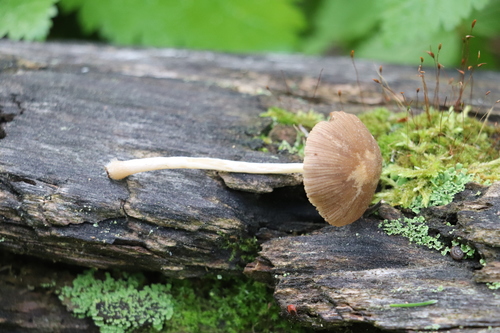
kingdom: Fungi
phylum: Basidiomycota
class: Agaricomycetes
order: Agaricales
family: Psathyrellaceae
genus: Psathyrella
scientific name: Psathyrella fatua
